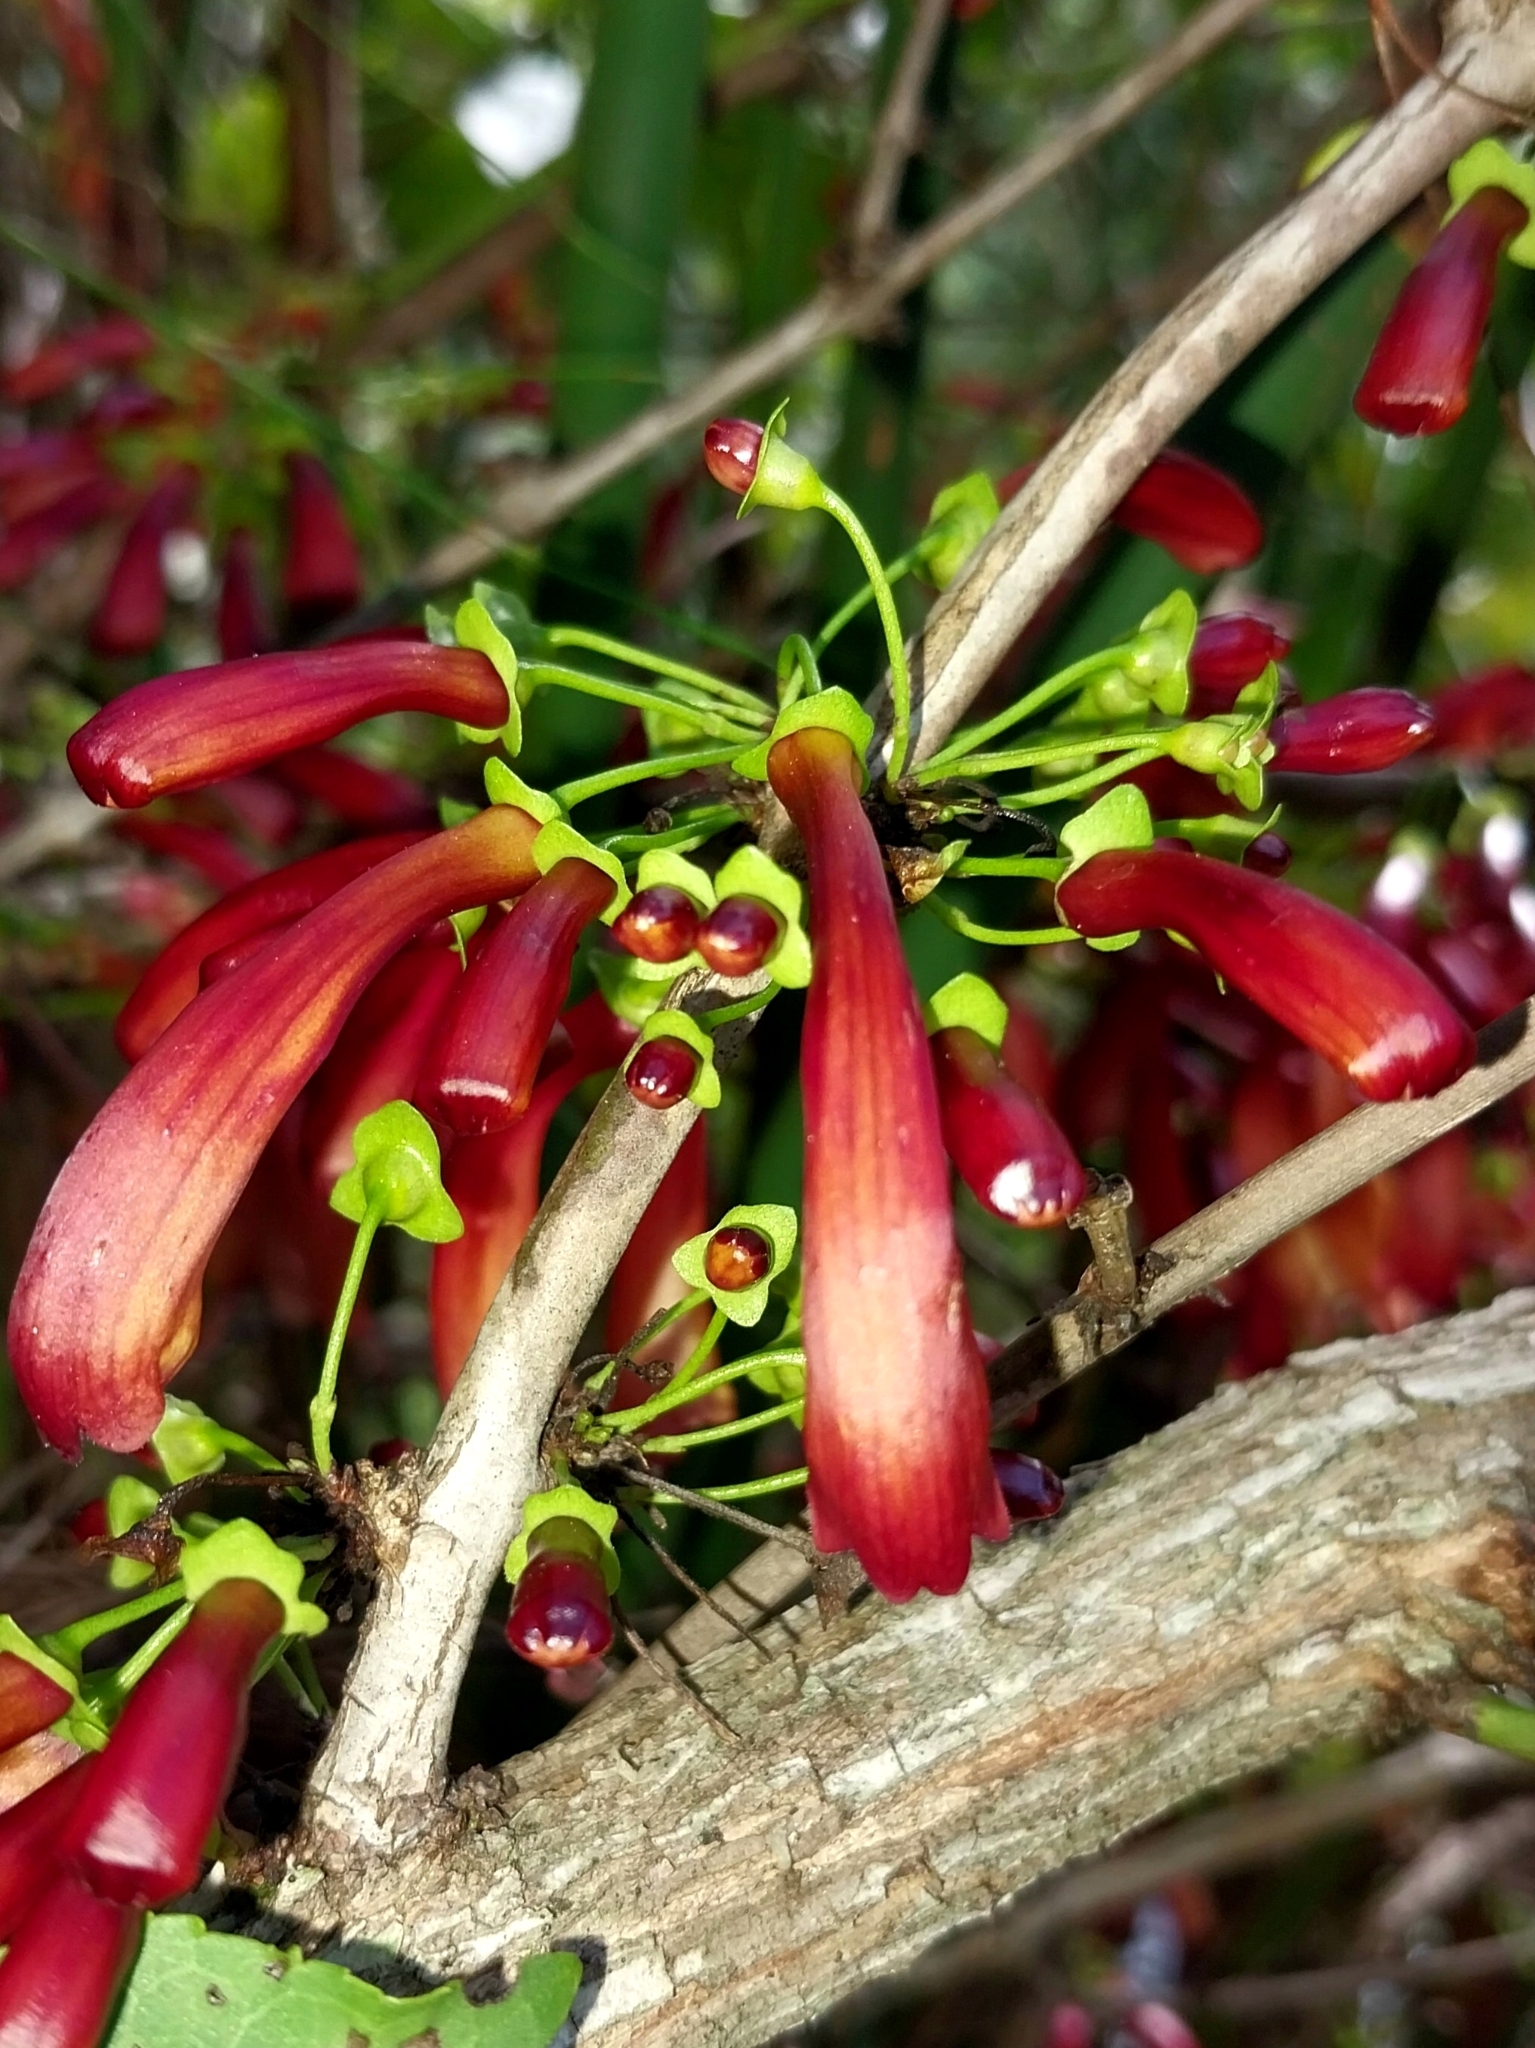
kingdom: Plantae
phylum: Tracheophyta
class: Magnoliopsida
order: Lamiales
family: Stilbaceae
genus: Halleria
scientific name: Halleria lucida
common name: Tree fuschia
